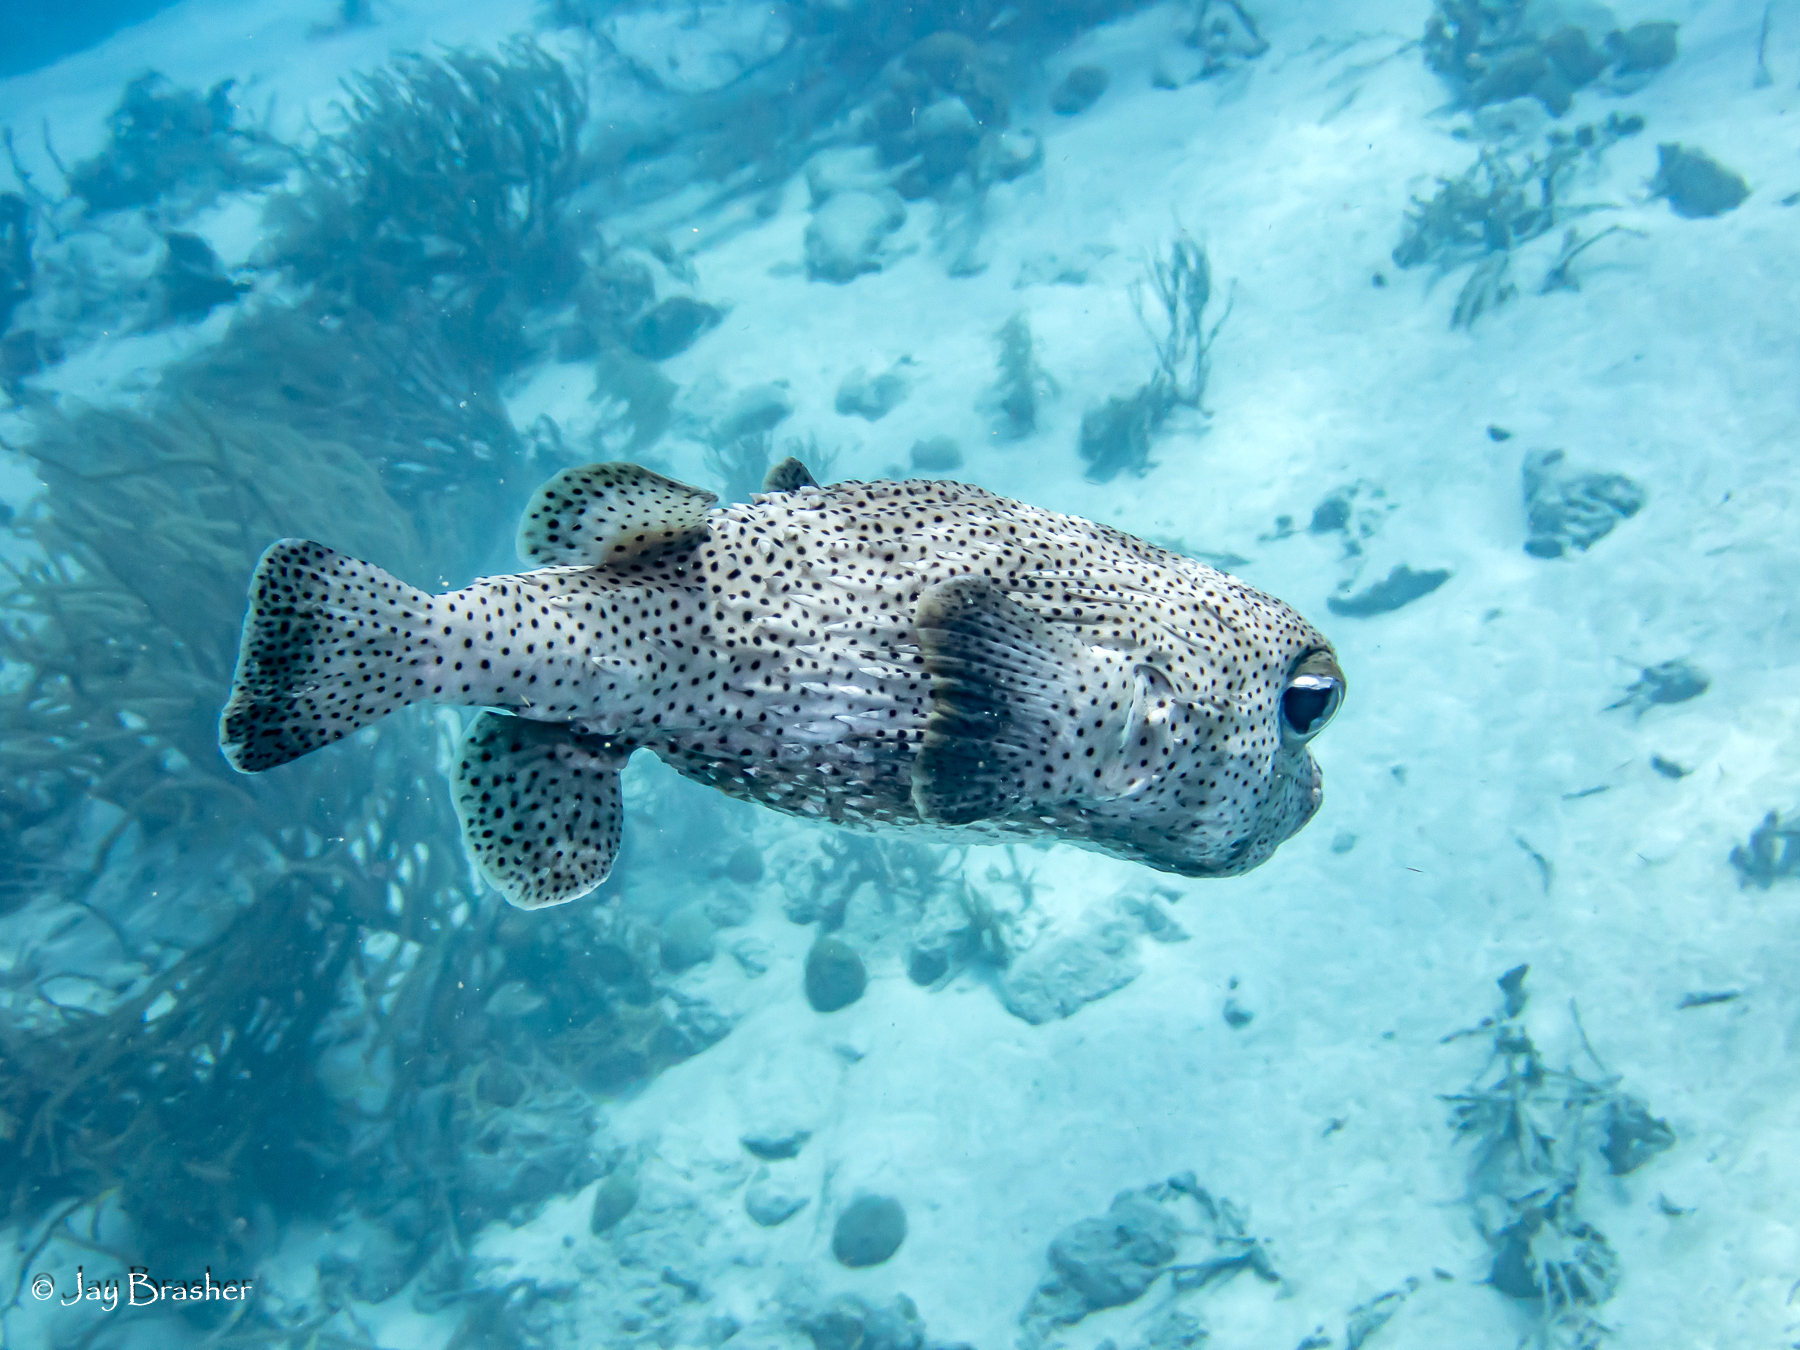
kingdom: Animalia
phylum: Chordata
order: Tetraodontiformes
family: Diodontidae
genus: Diodon
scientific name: Diodon hystrix
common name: Giant porcupinefish
